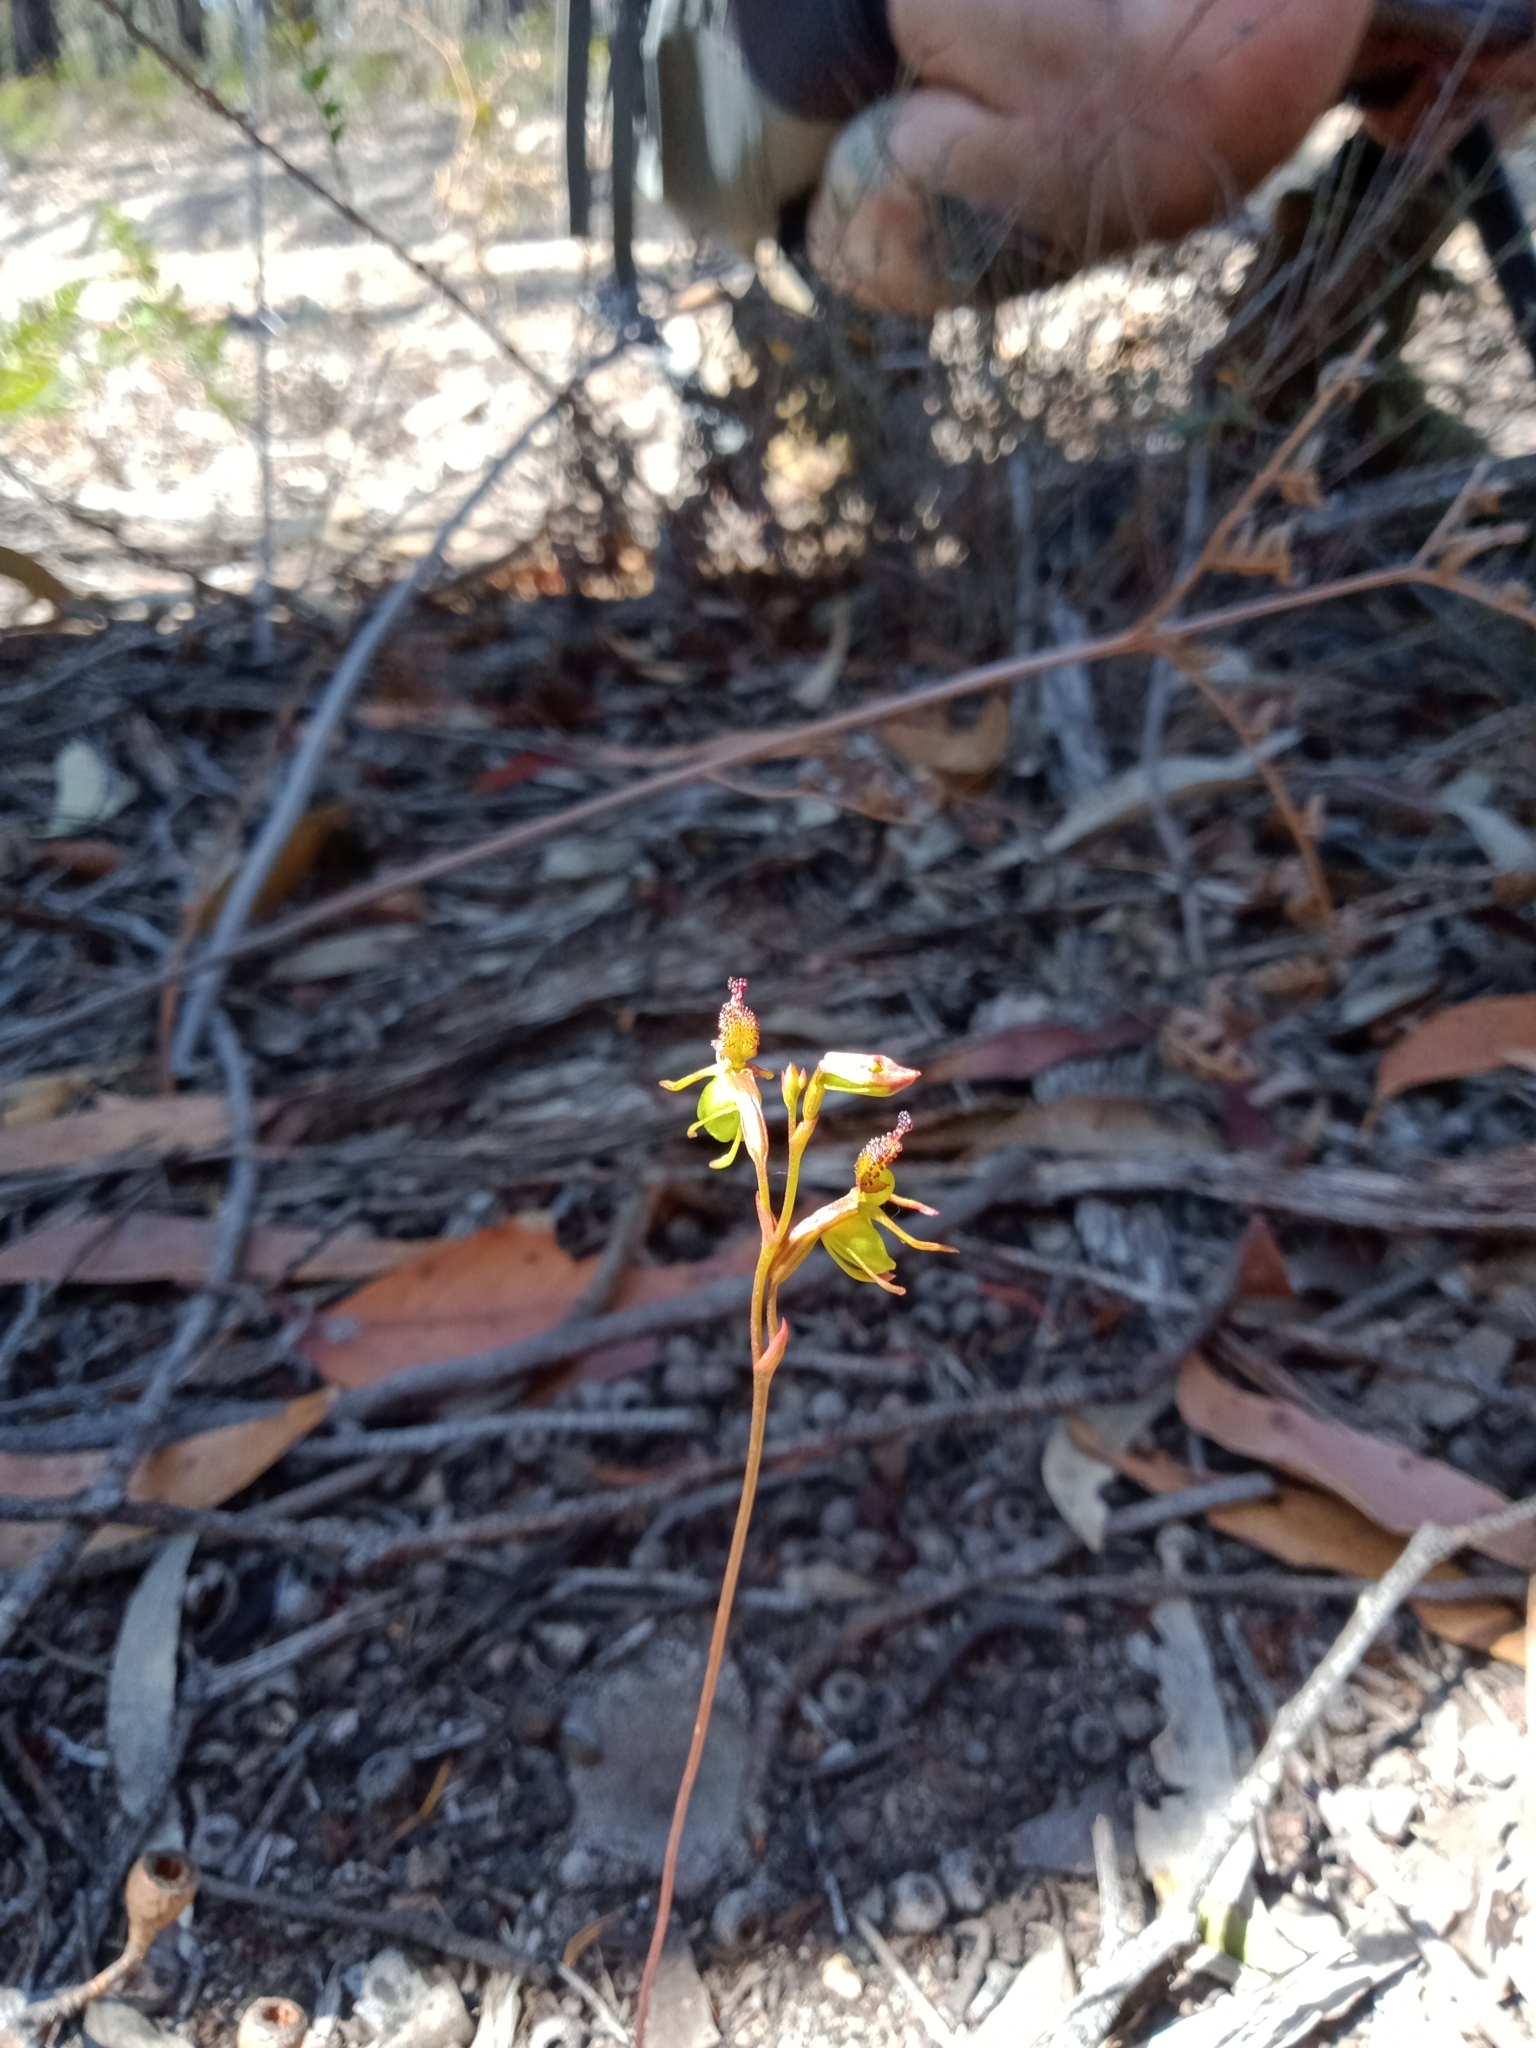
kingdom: Plantae
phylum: Tracheophyta
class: Liliopsida
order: Asparagales
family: Orchidaceae
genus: Caleana
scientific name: Caleana minor
